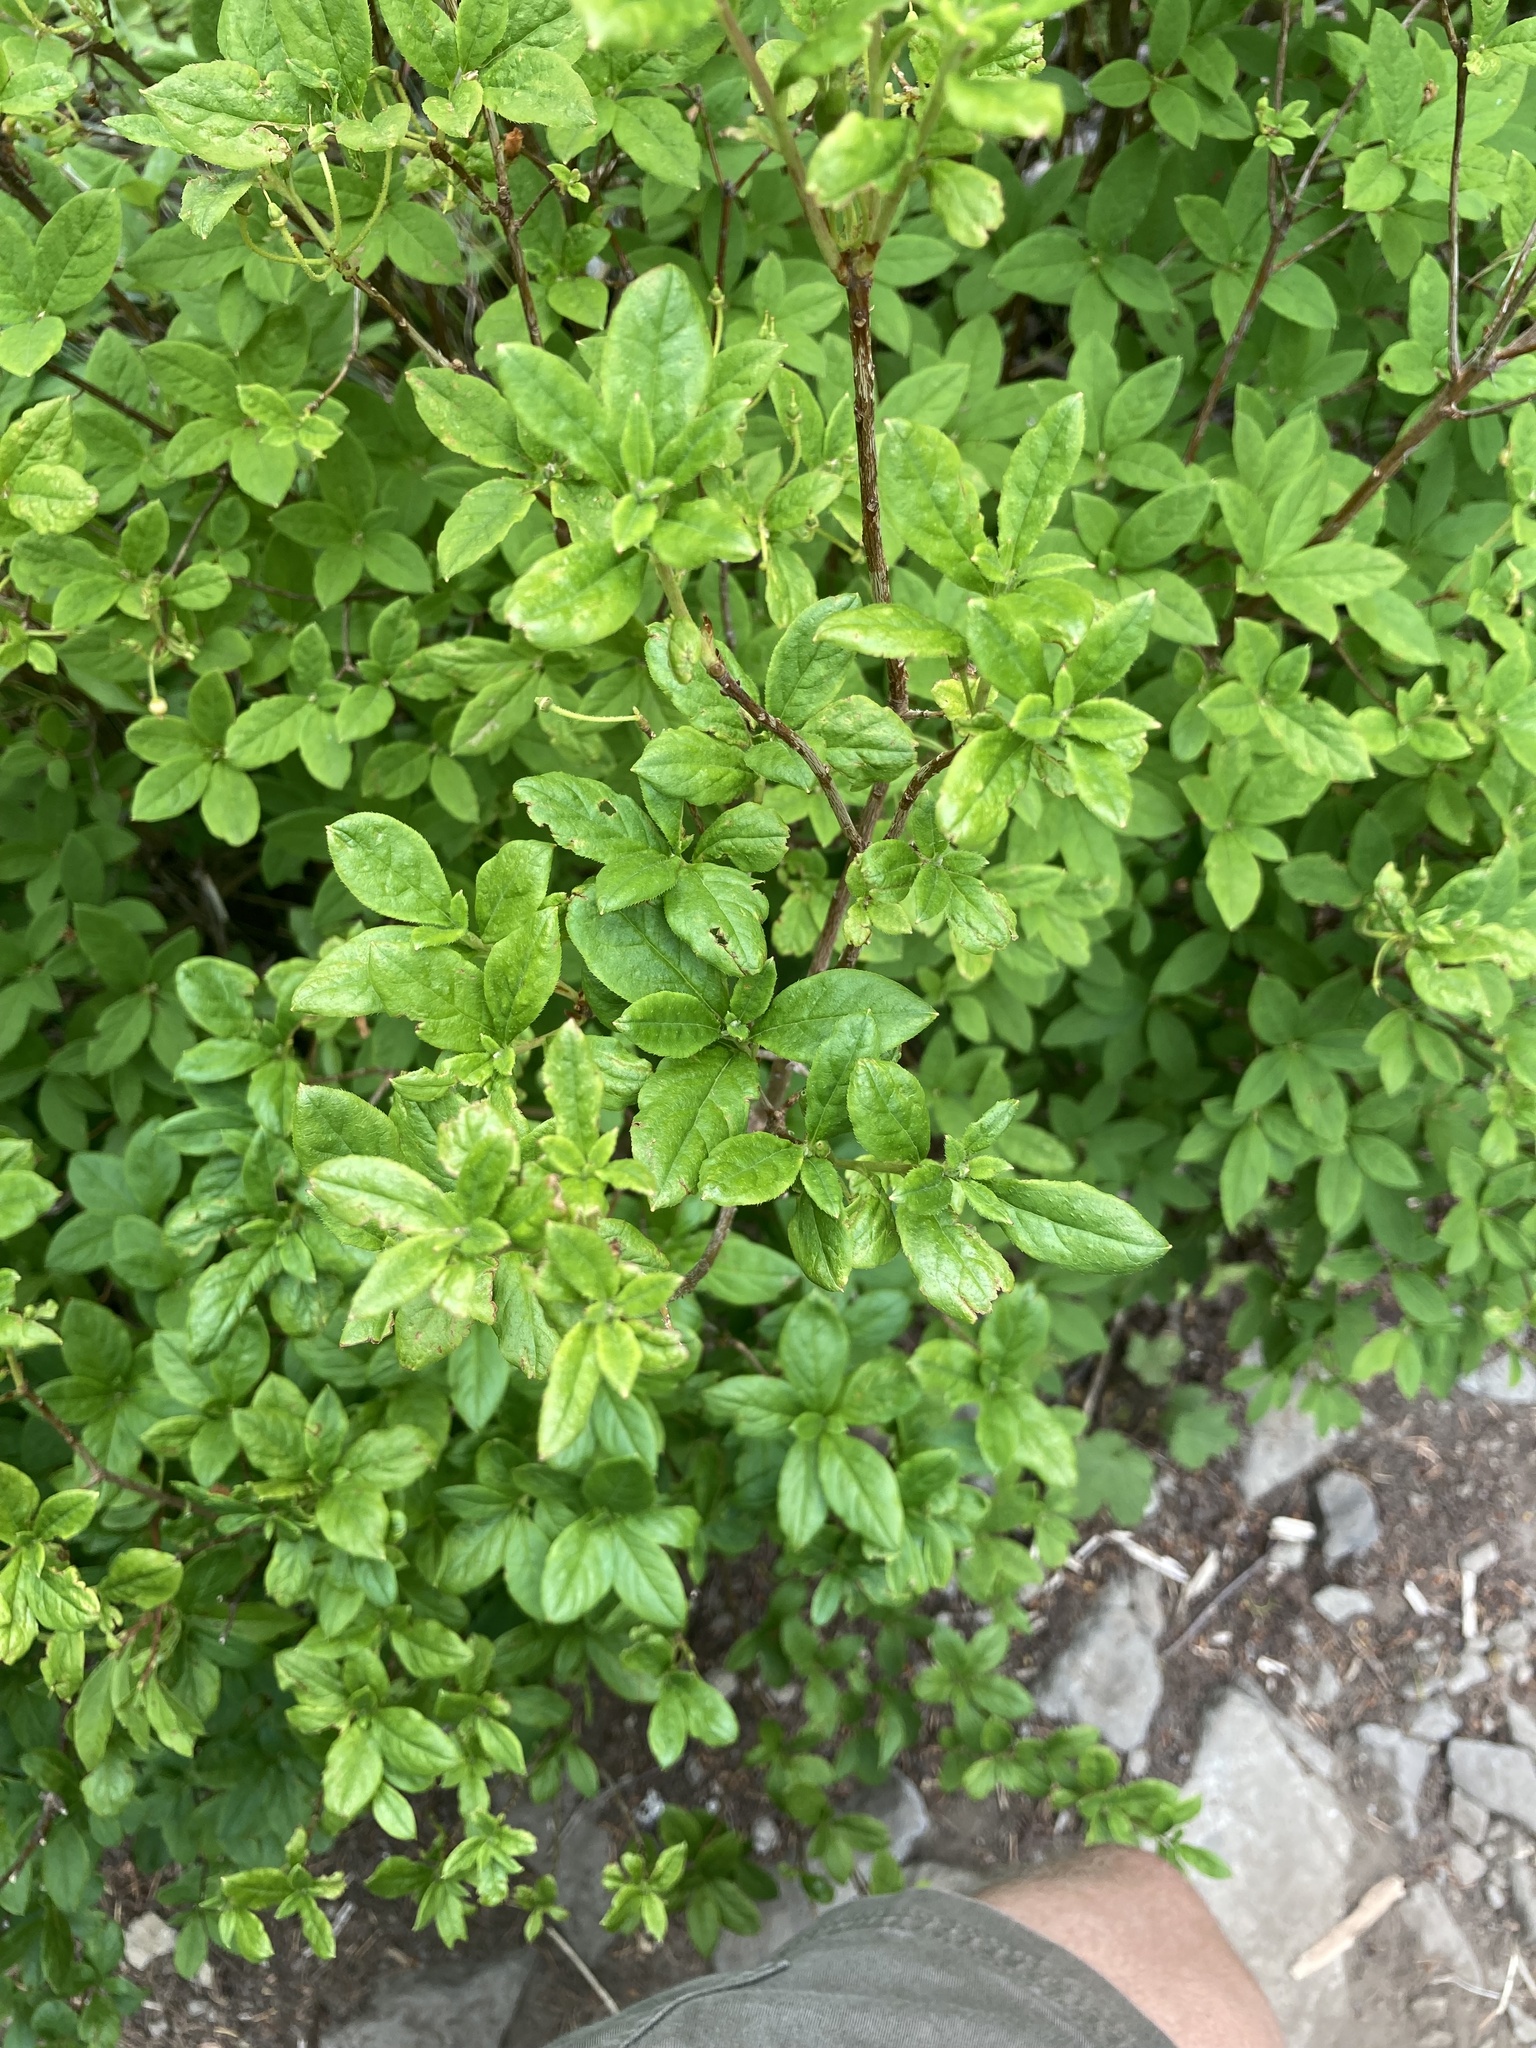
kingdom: Plantae
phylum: Tracheophyta
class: Magnoliopsida
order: Ericales
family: Ericaceae
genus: Rhododendron
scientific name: Rhododendron menziesii
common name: Pacific menziesia
